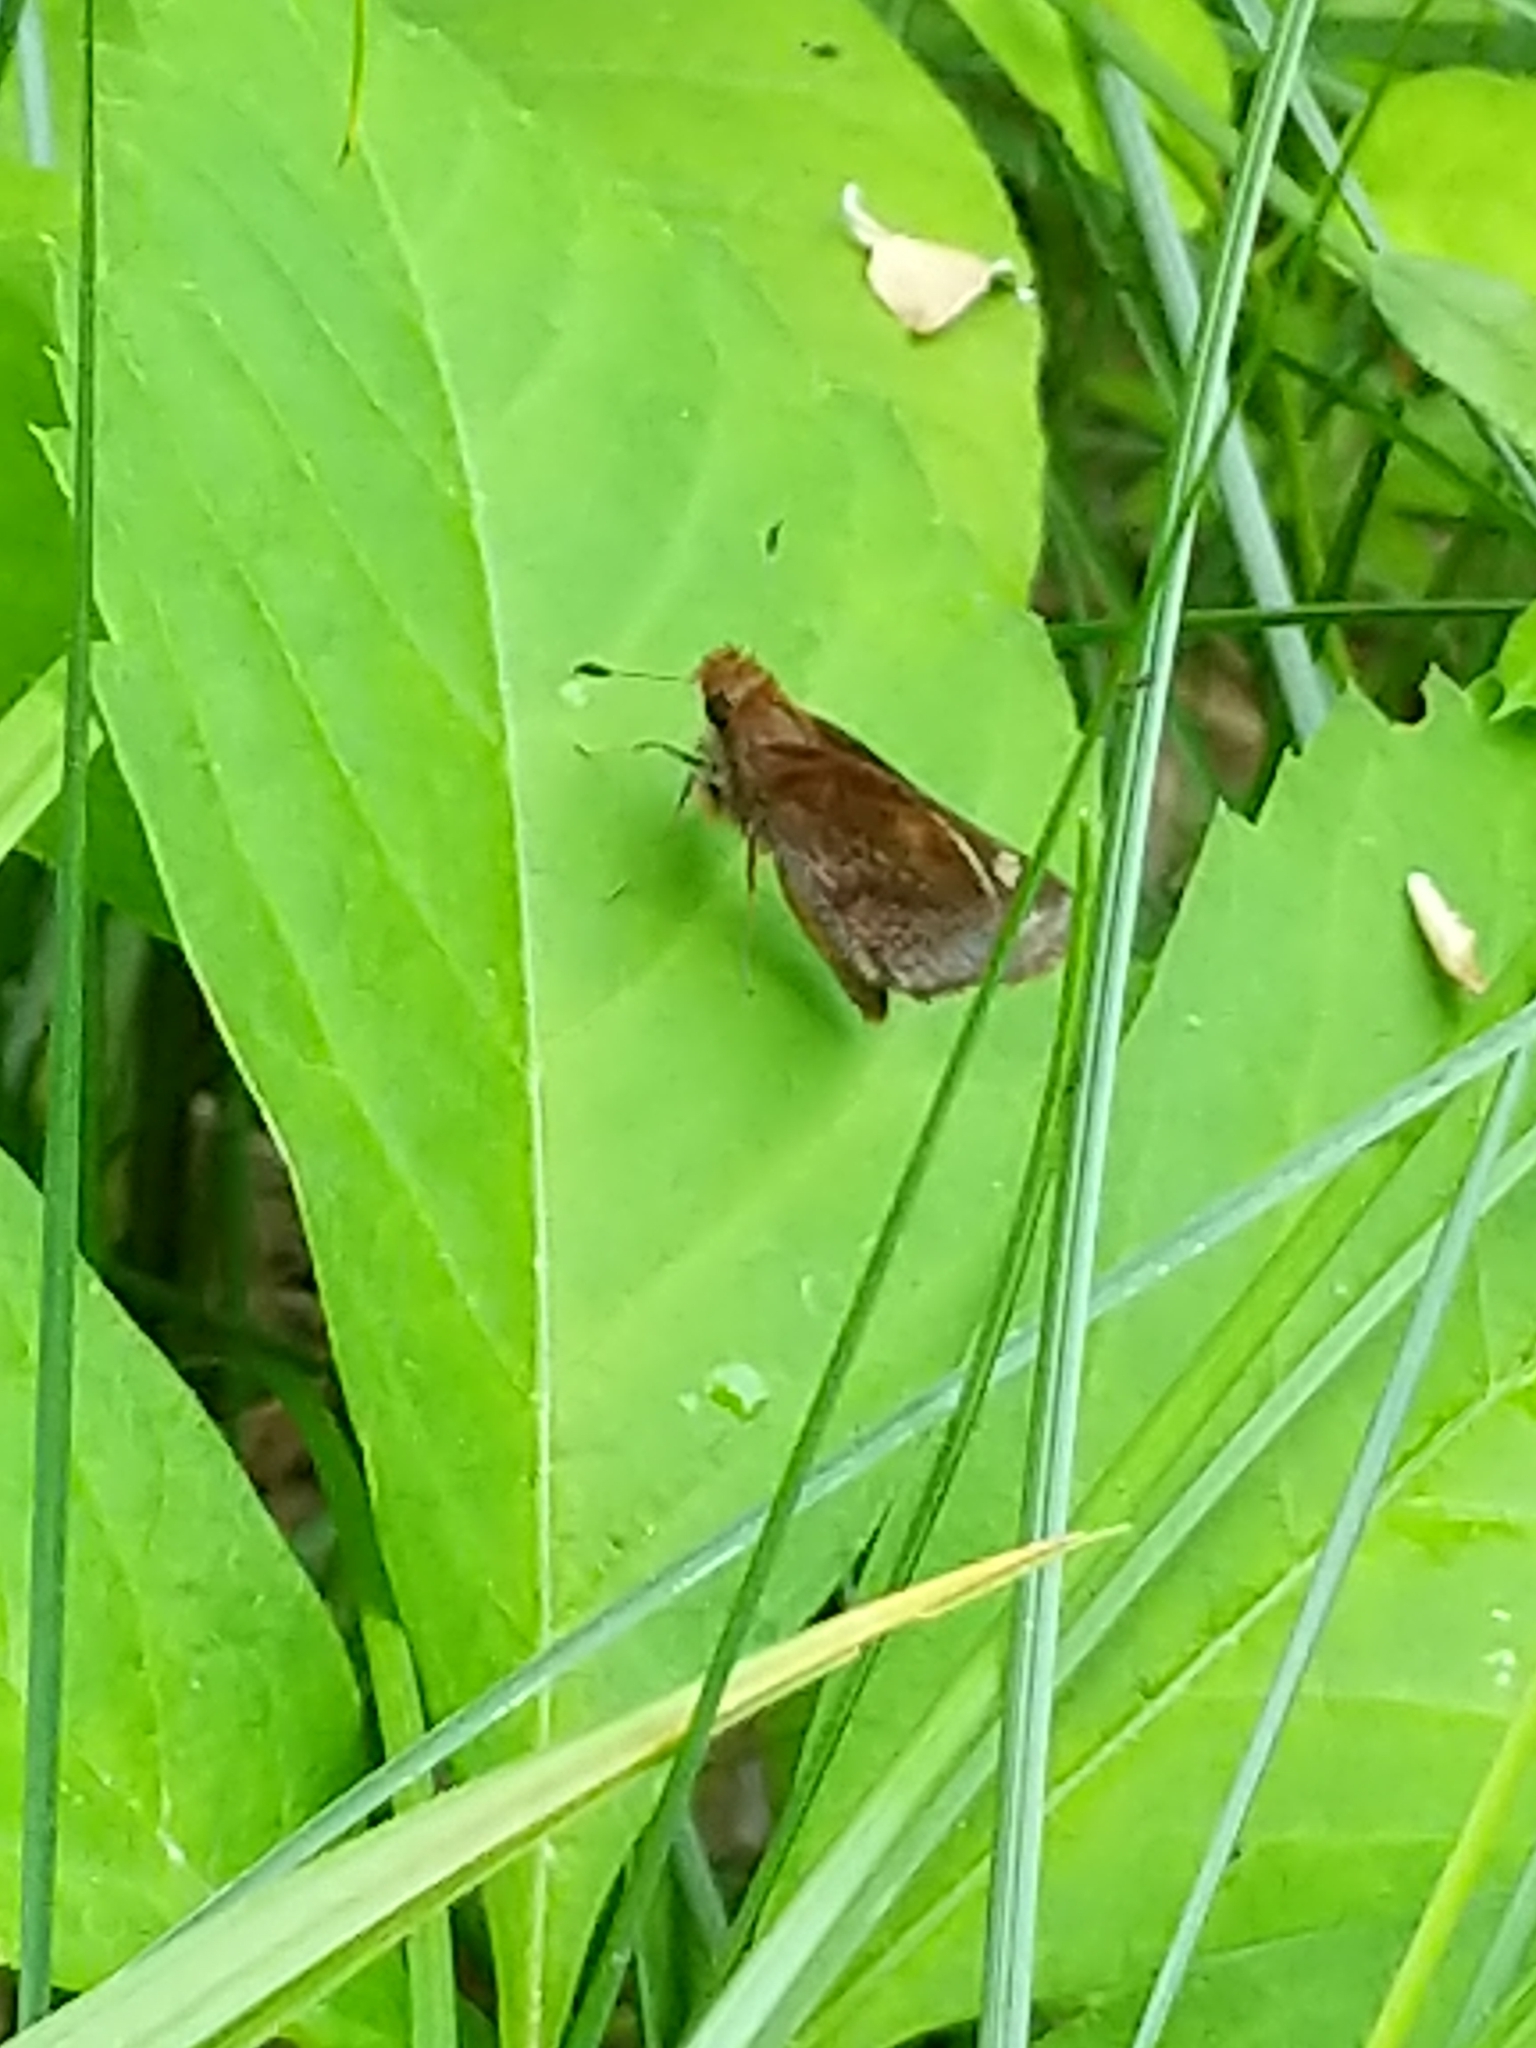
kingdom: Animalia
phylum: Arthropoda
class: Insecta
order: Lepidoptera
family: Hesperiidae
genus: Lon
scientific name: Lon zabulon
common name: Zabulon skipper
